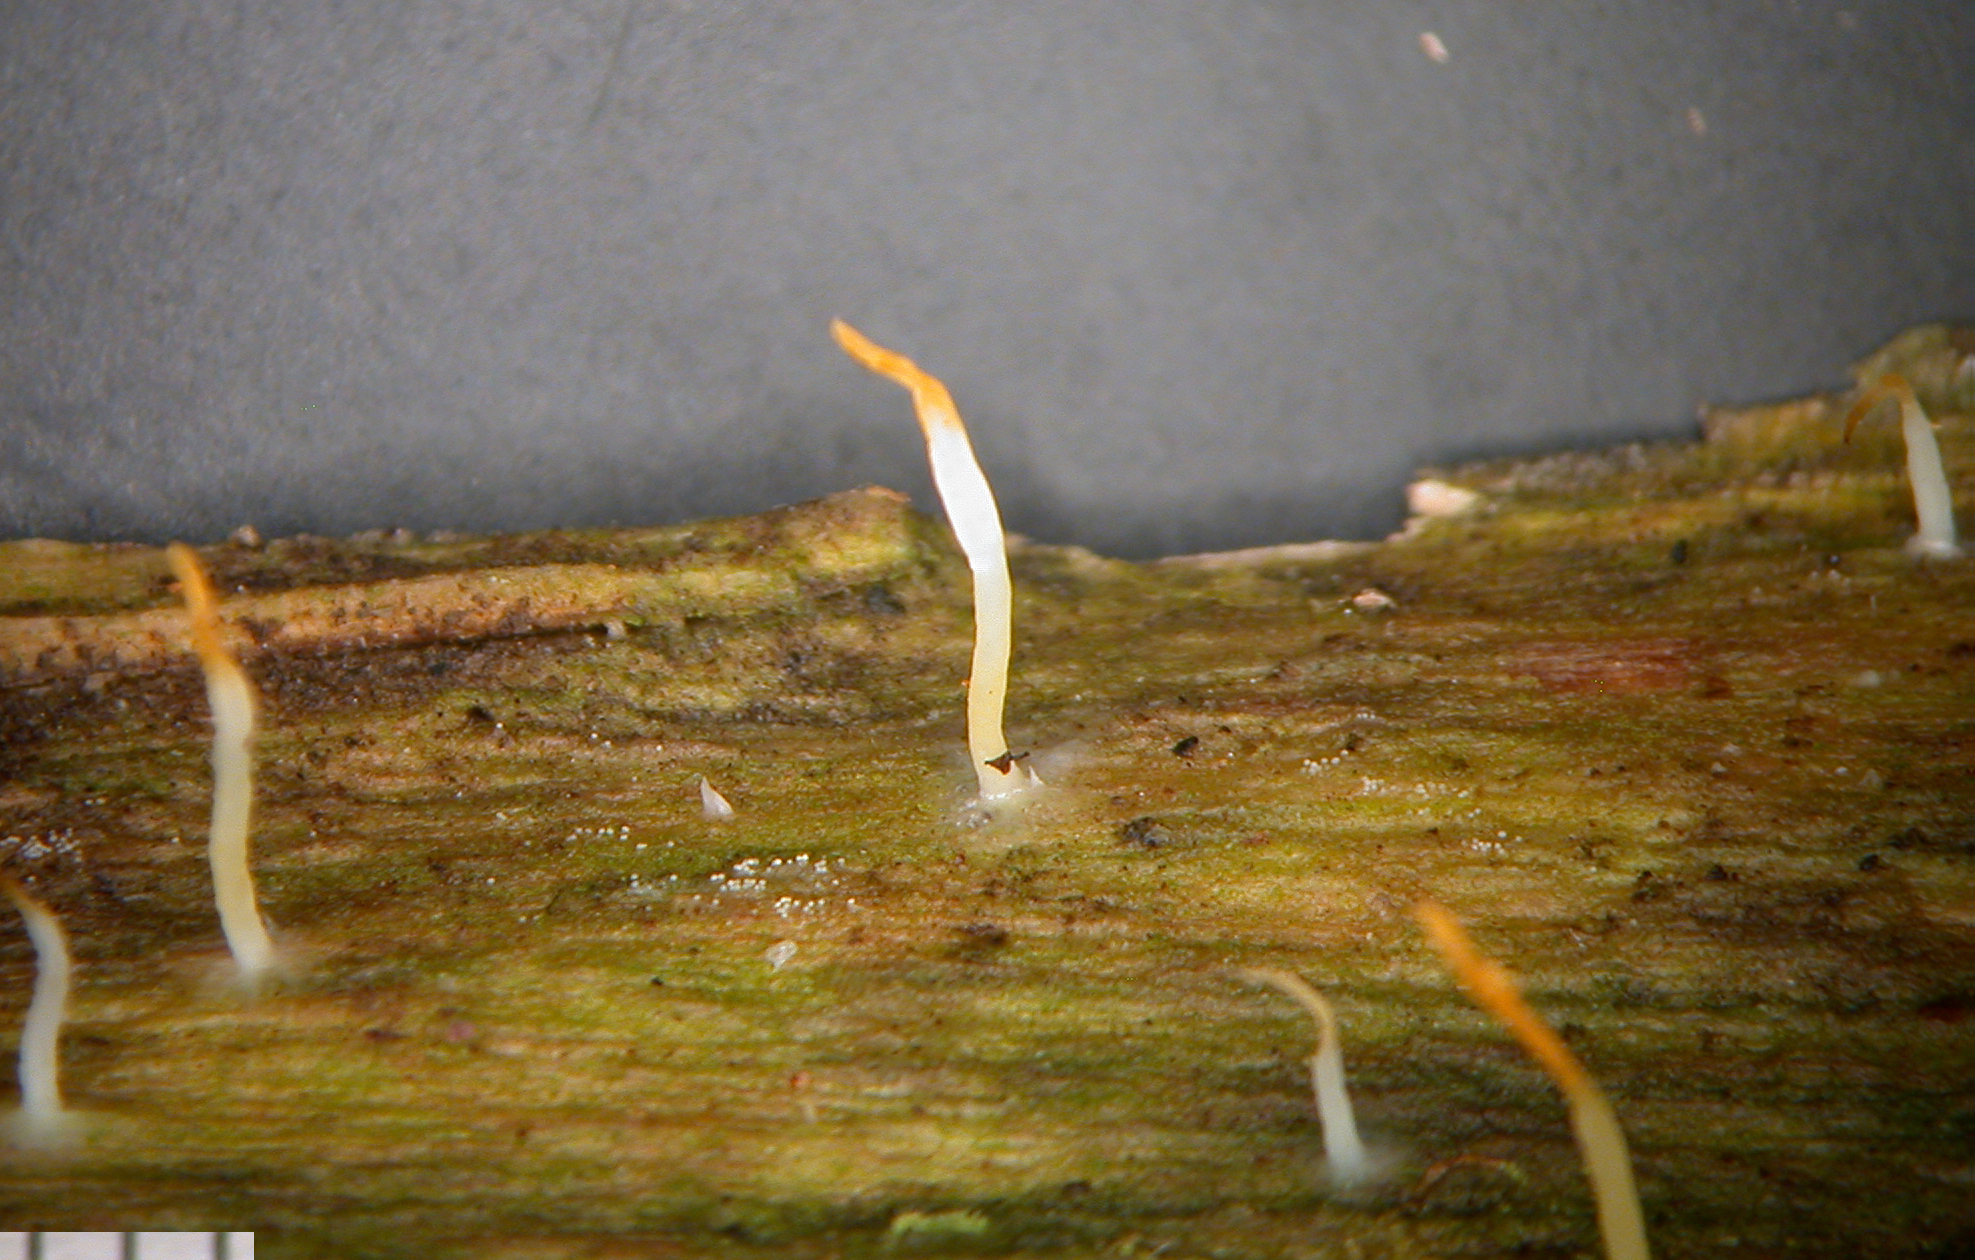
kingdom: Fungi
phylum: Basidiomycota
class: Agaricomycetes
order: Cantharellales
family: Hydnaceae
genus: Multiclavula
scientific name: Multiclavula mucida
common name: White green-algae coral
